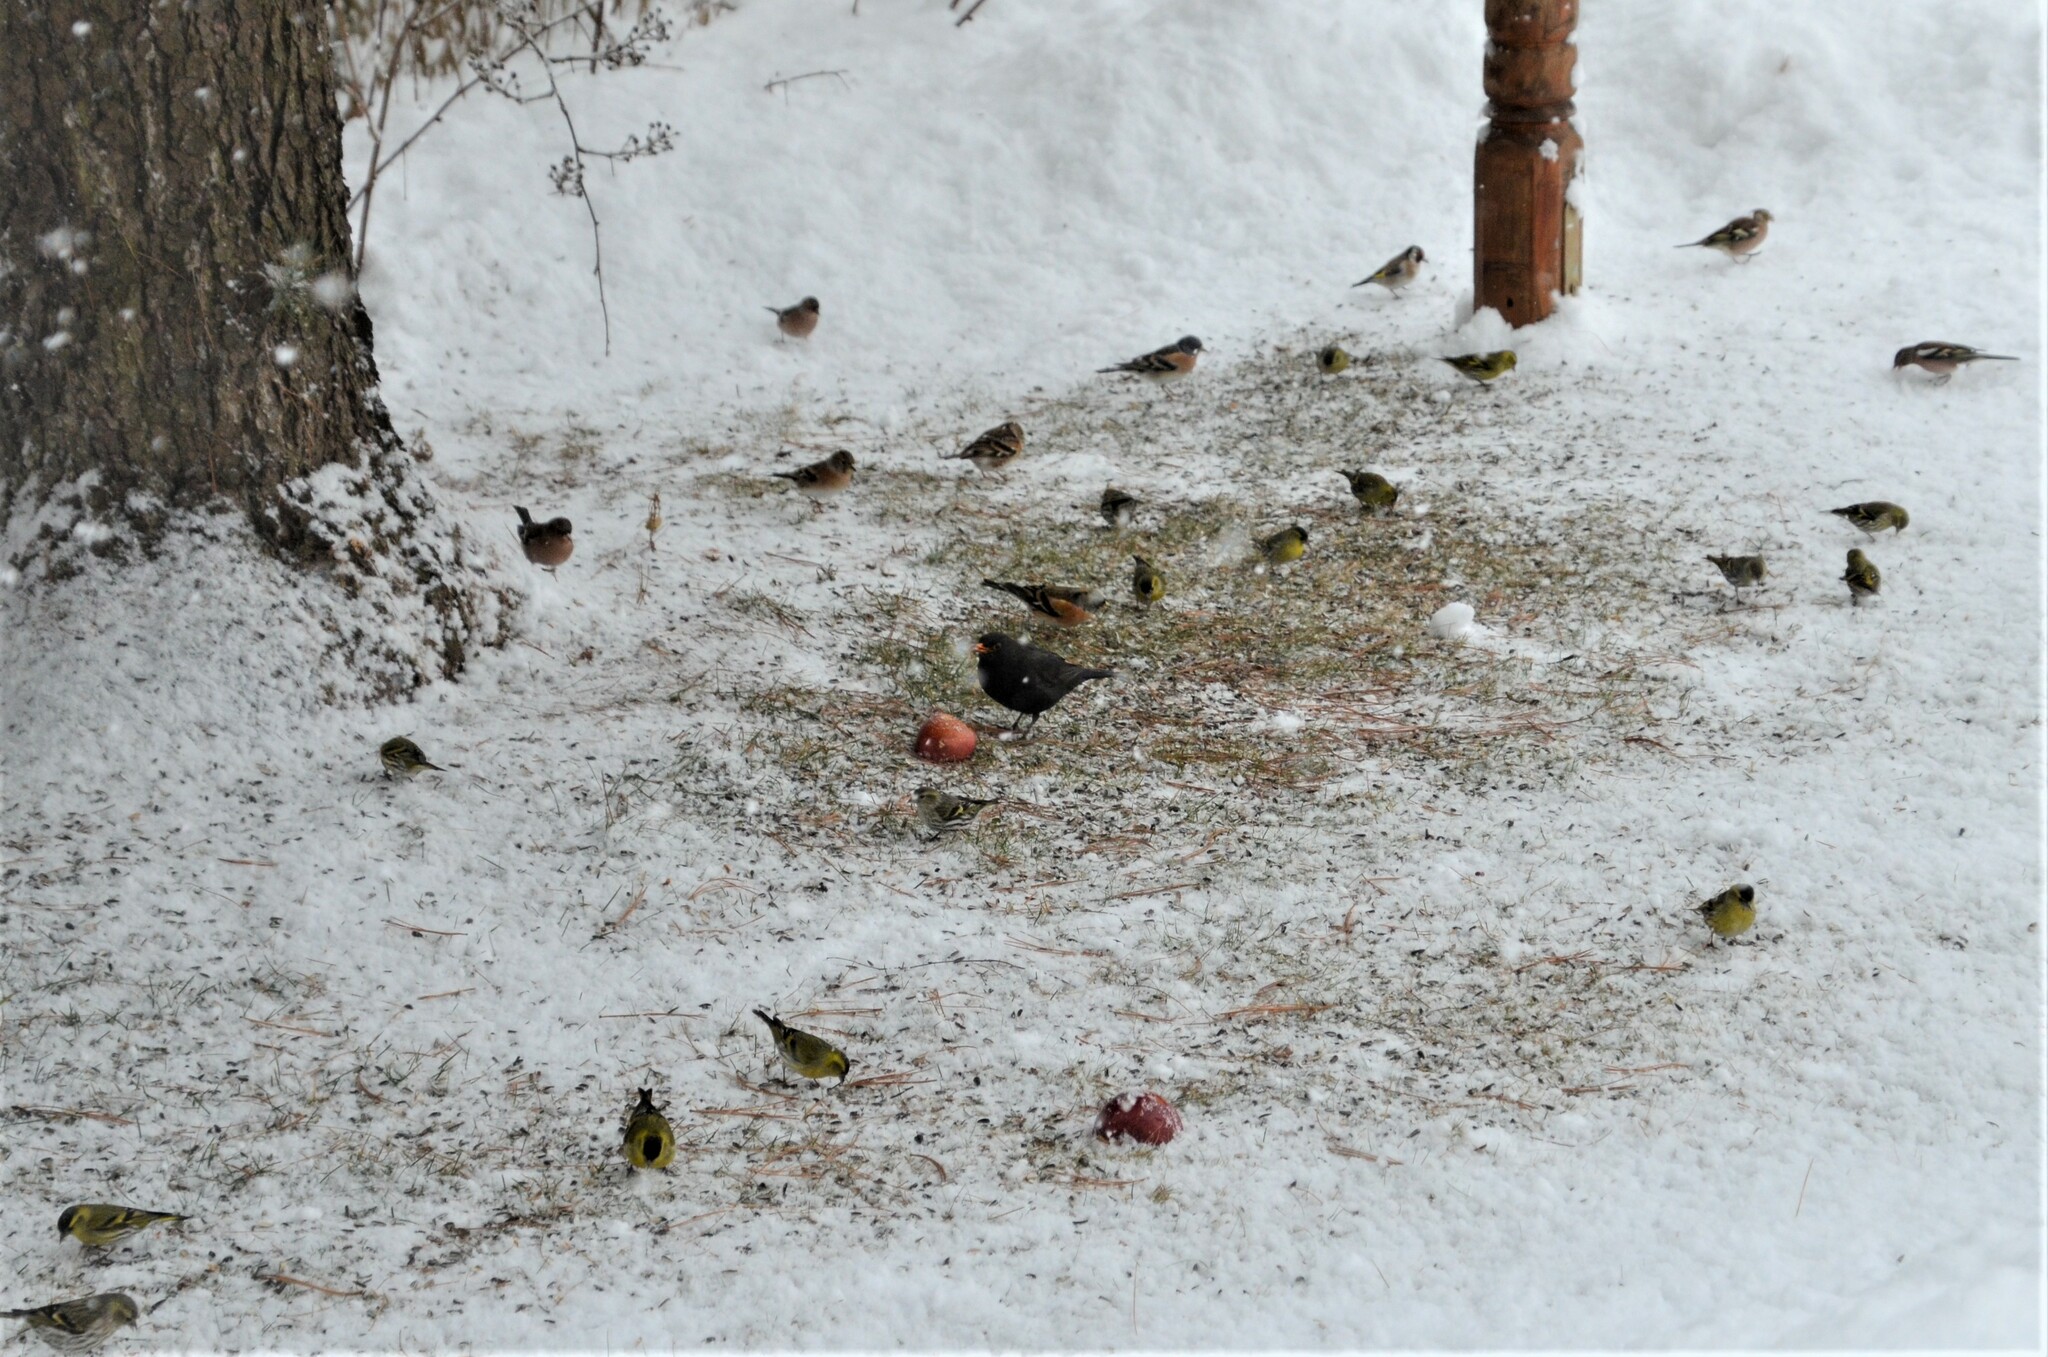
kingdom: Animalia
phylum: Chordata
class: Aves
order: Passeriformes
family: Turdidae
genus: Turdus
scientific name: Turdus merula
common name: Common blackbird
